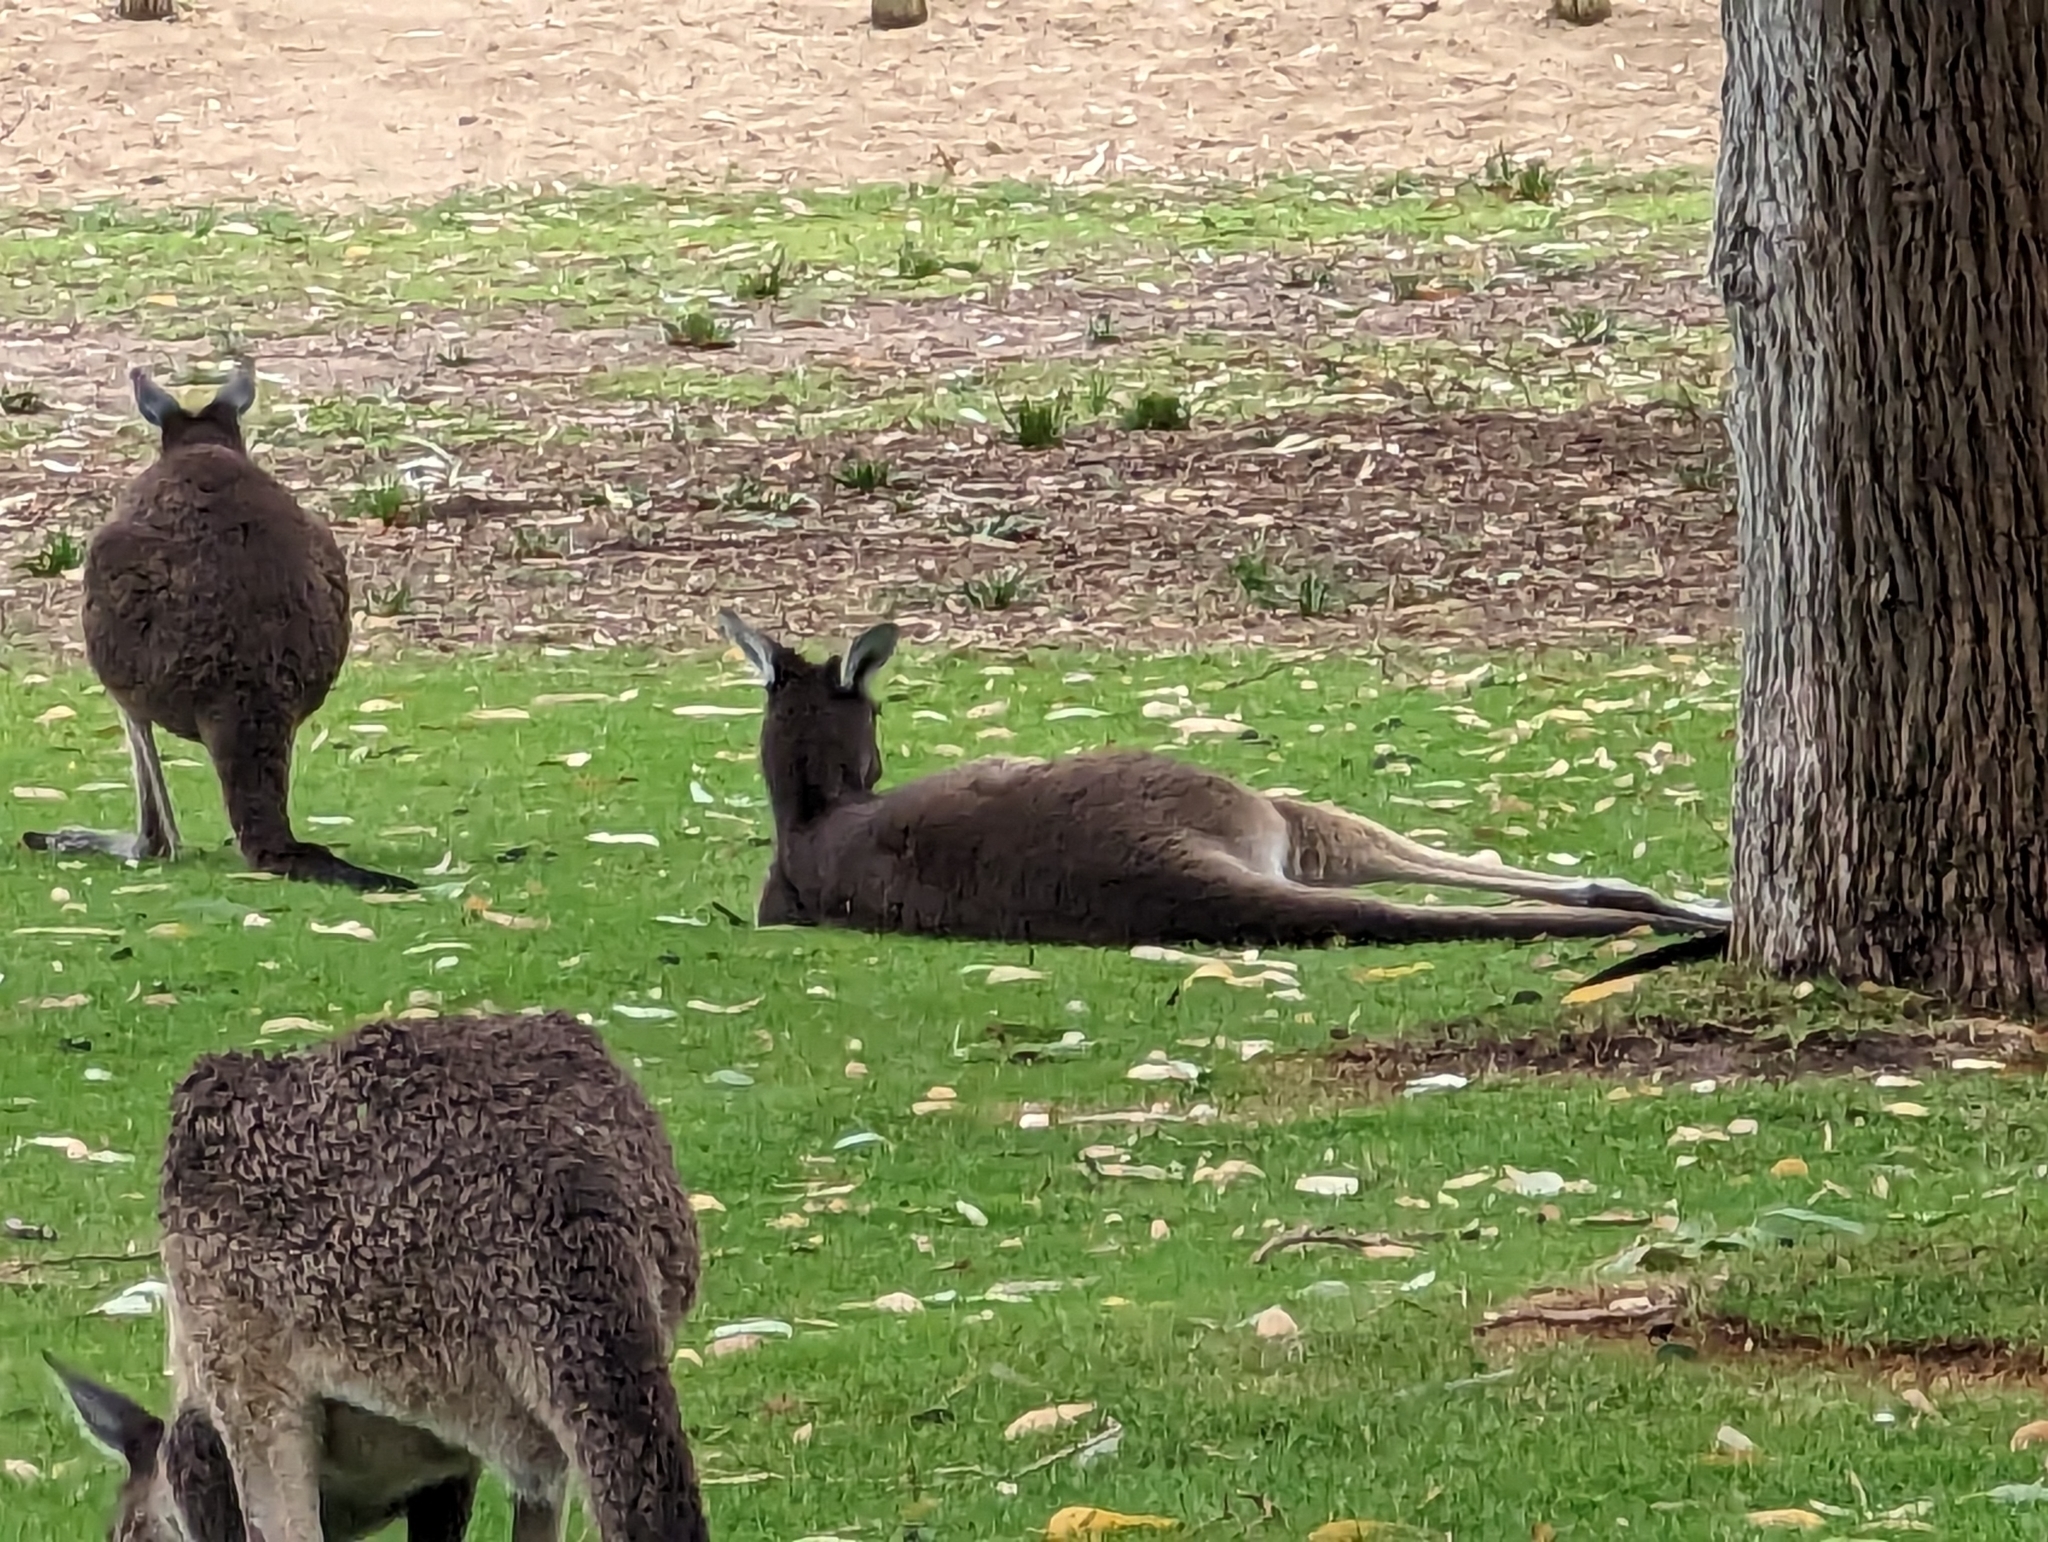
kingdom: Animalia
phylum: Chordata
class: Mammalia
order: Diprotodontia
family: Macropodidae
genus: Macropus
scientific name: Macropus fuliginosus
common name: Western grey kangaroo
